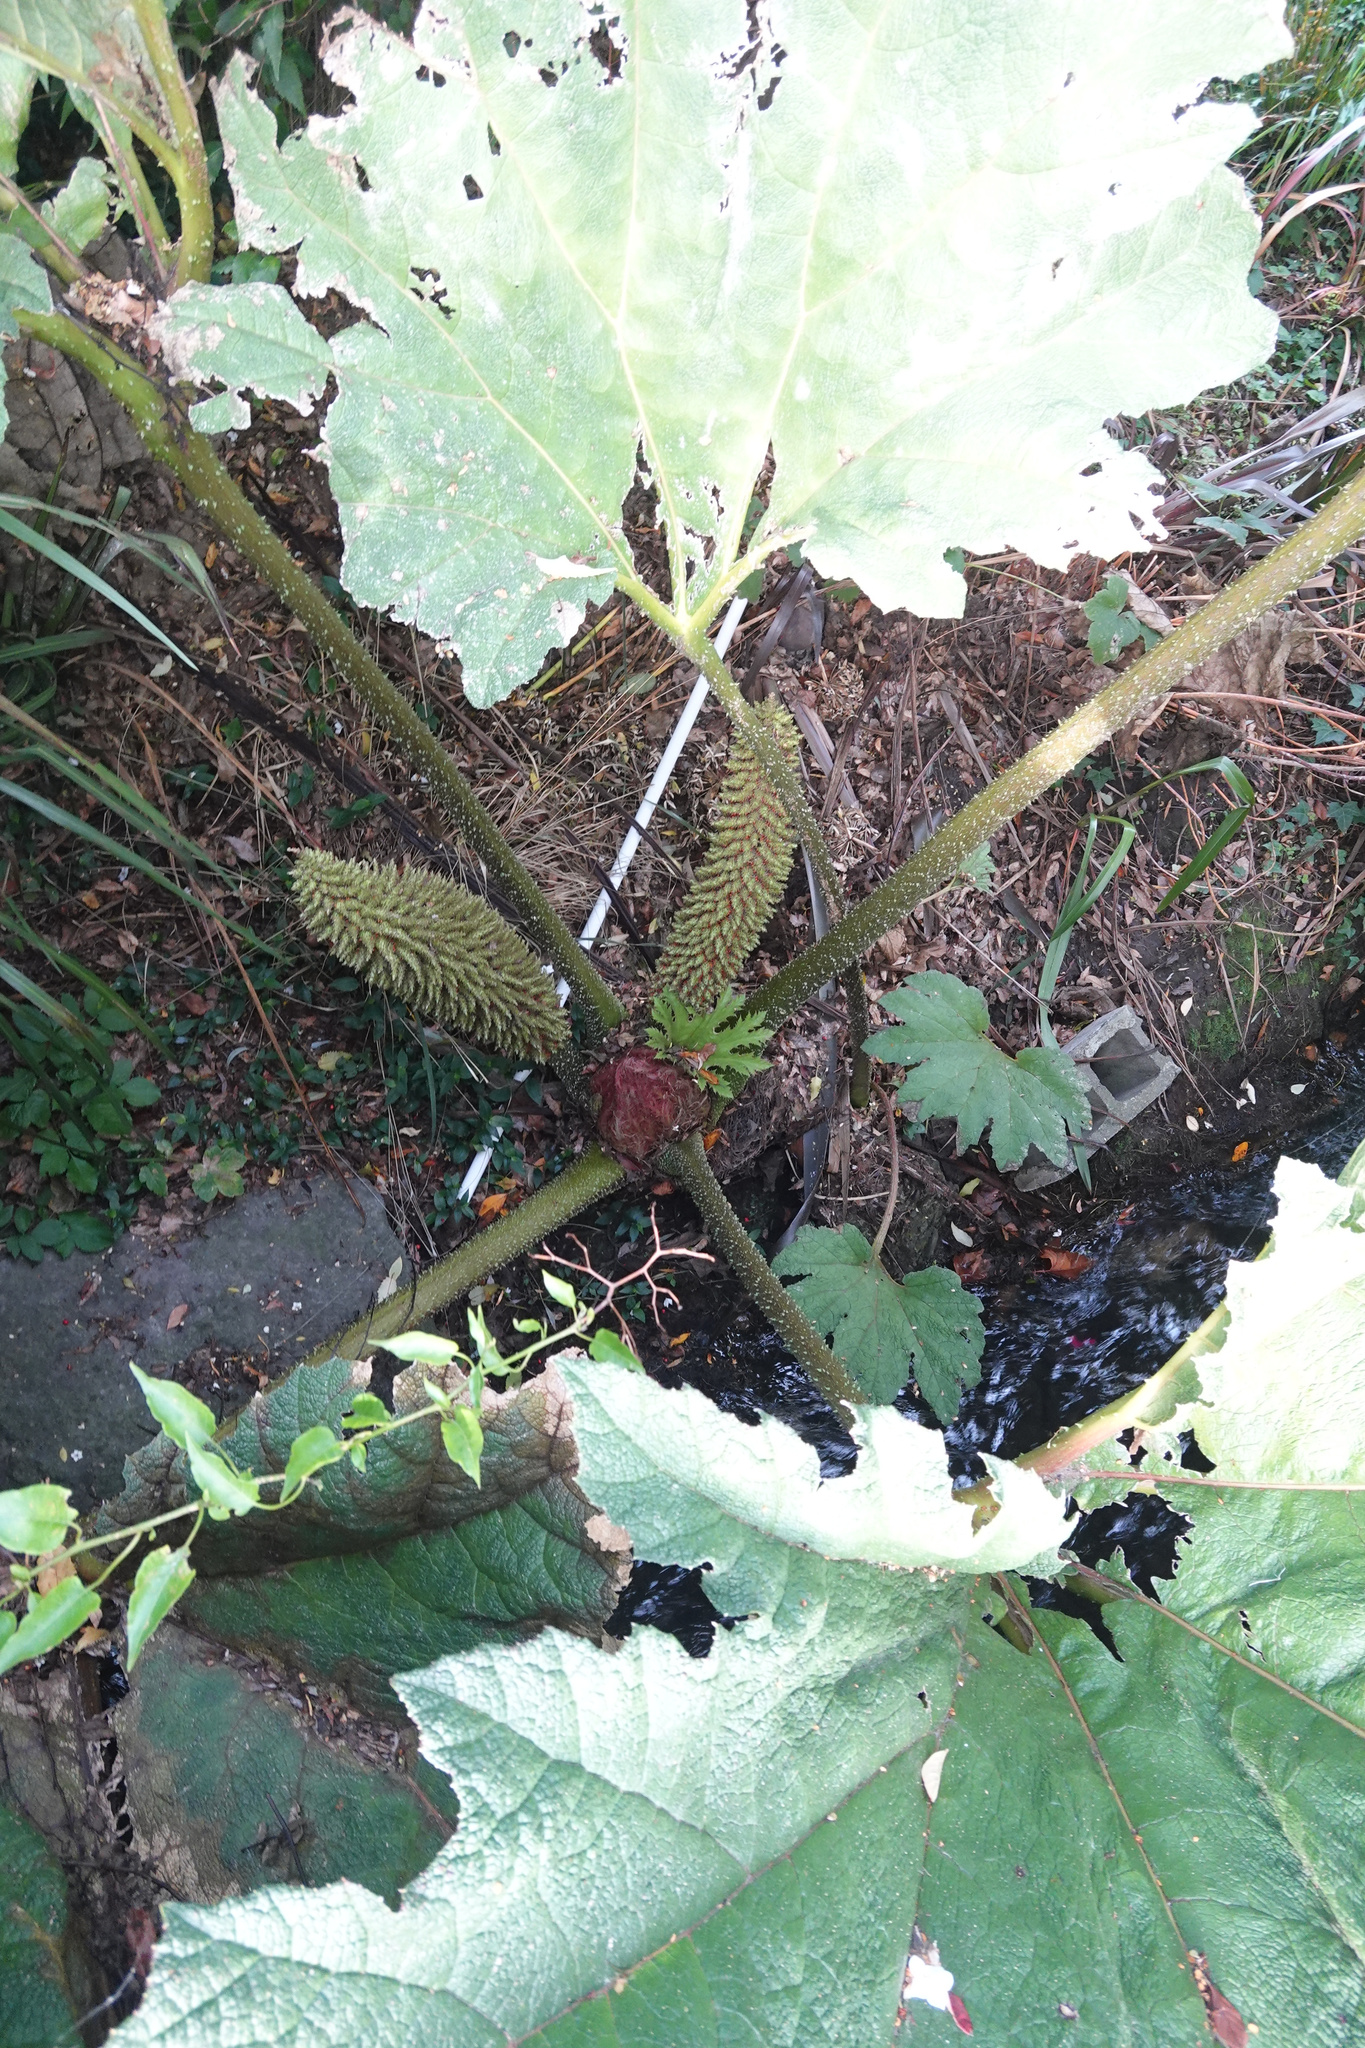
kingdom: Plantae
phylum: Tracheophyta
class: Magnoliopsida
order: Gunnerales
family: Gunneraceae
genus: Gunnera
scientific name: Gunnera tinctoria
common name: Giant-rhubarb
